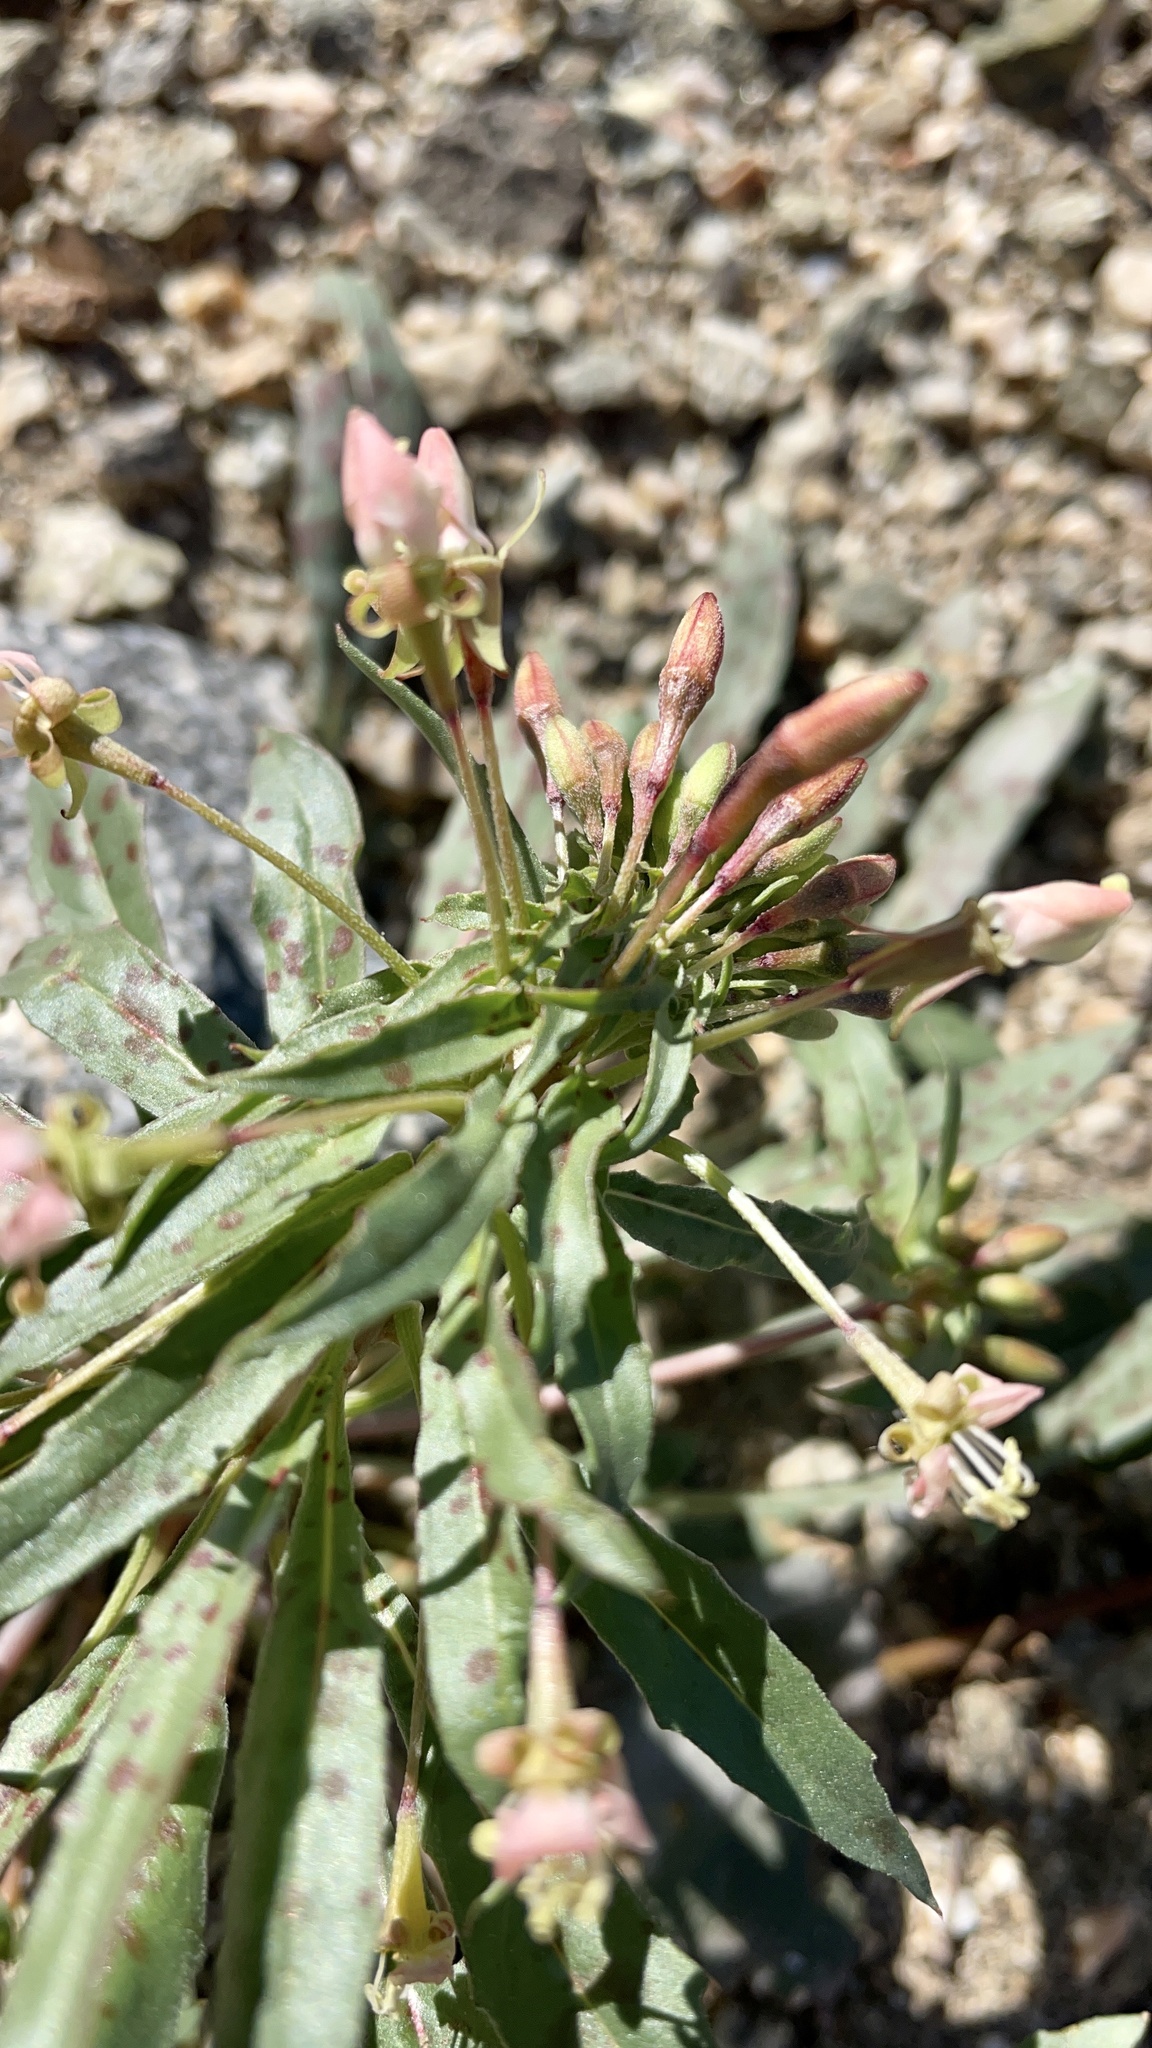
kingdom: Plantae
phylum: Tracheophyta
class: Magnoliopsida
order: Myrtales
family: Onagraceae
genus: Eremothera
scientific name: Eremothera boothii
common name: Booth's evening primrose
